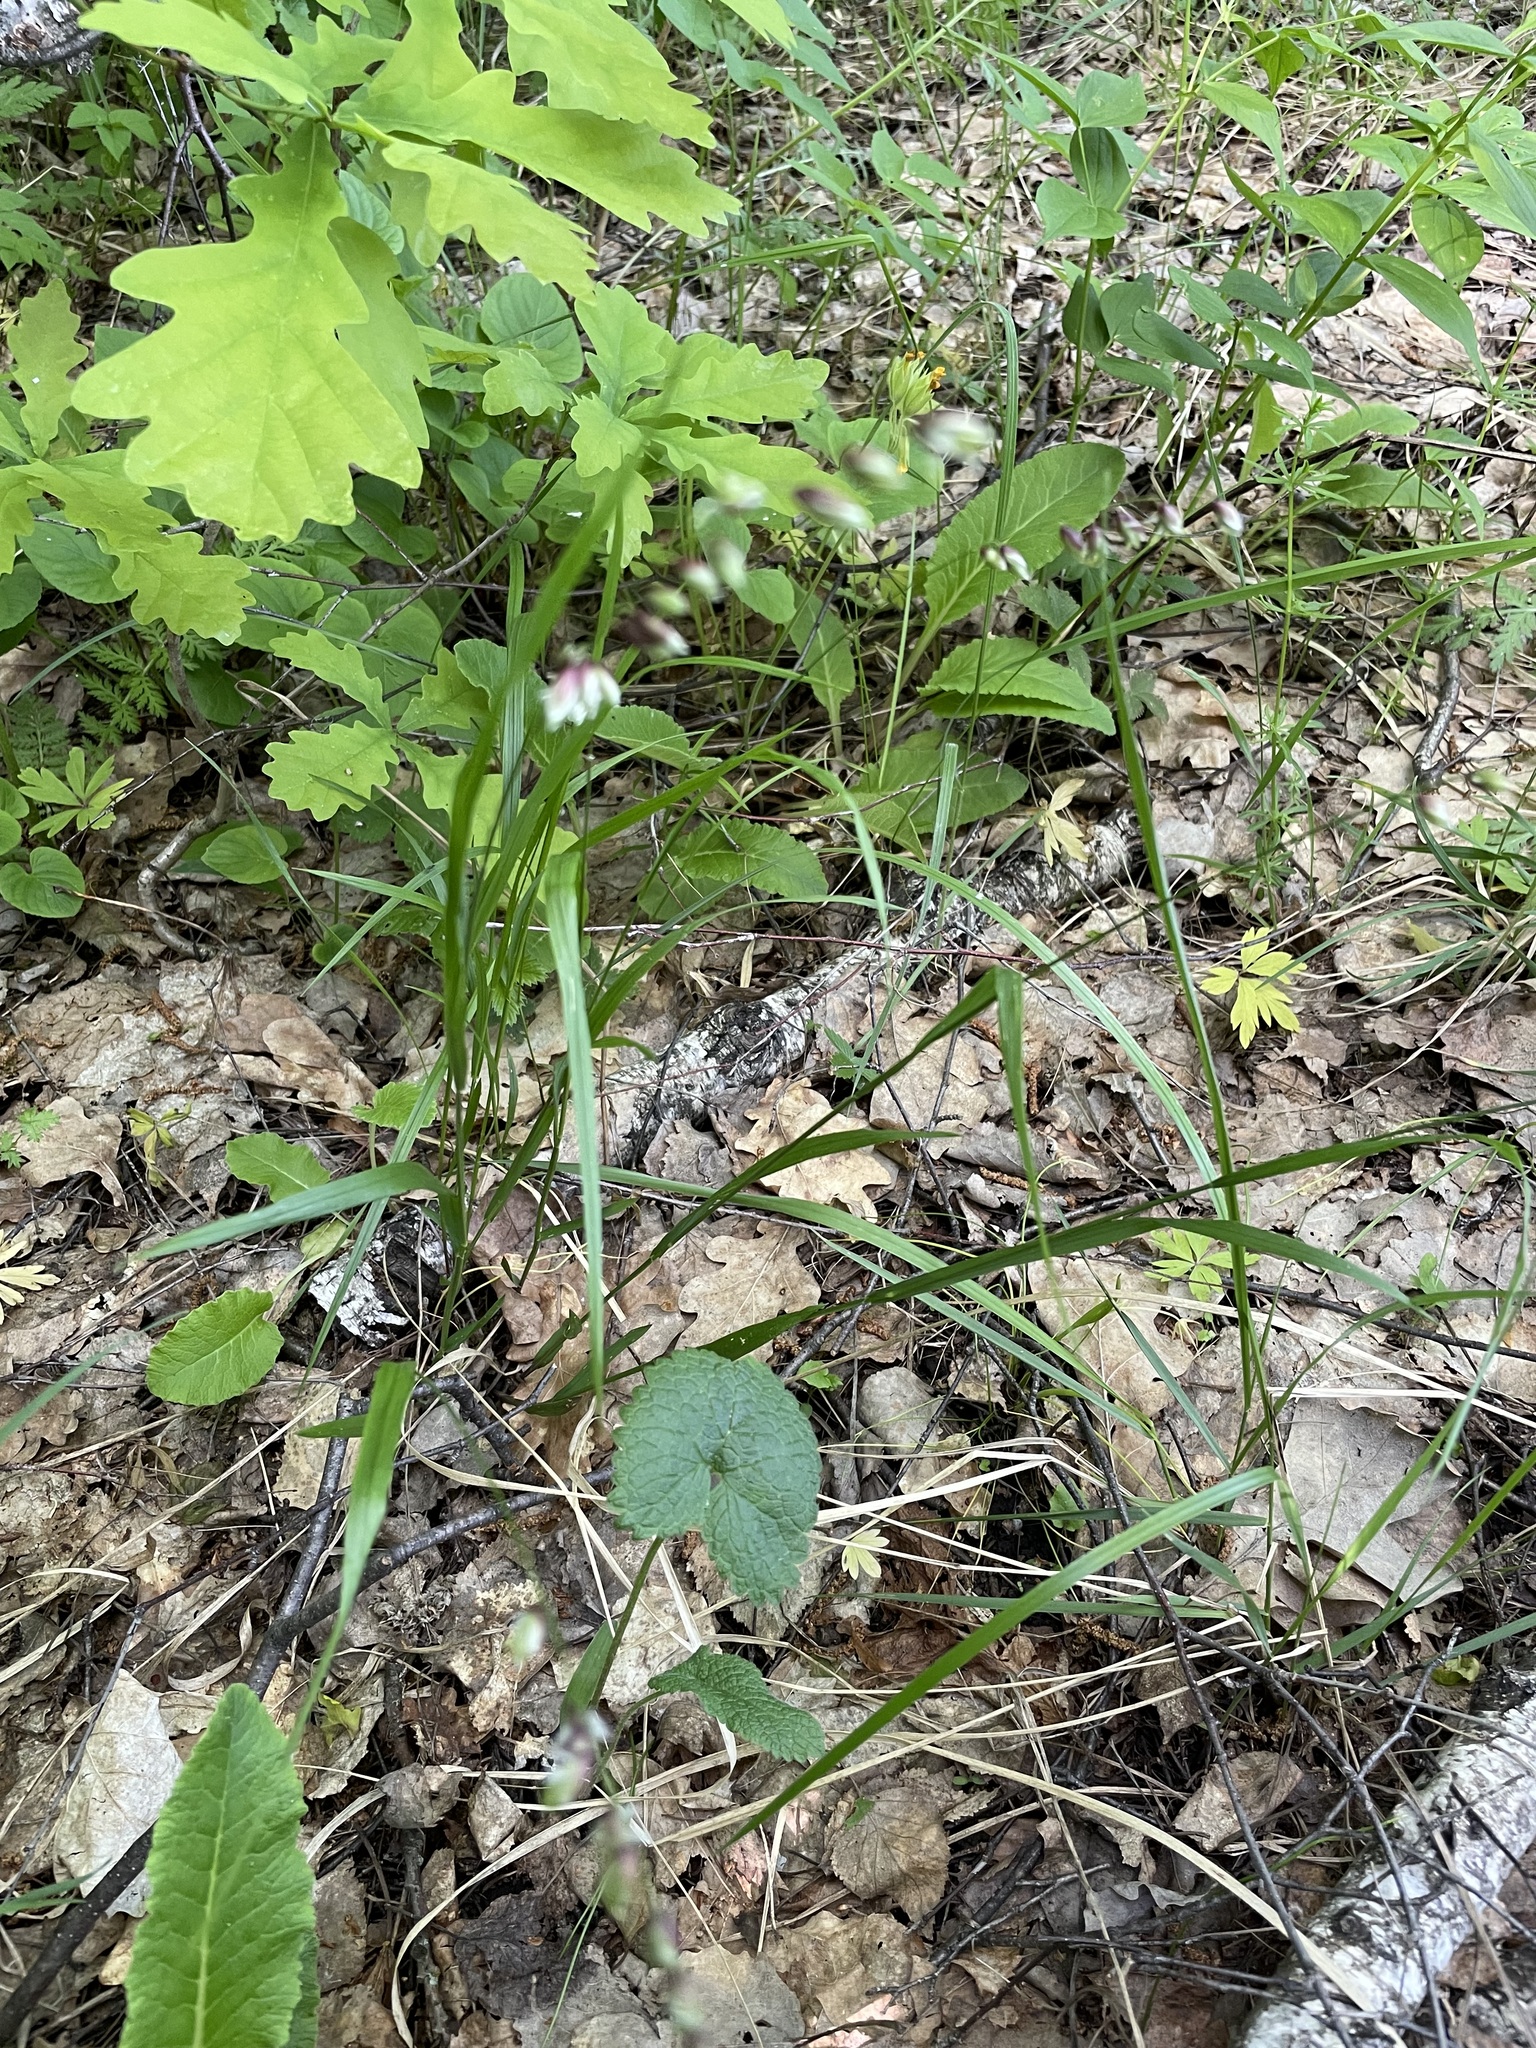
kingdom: Plantae
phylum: Tracheophyta
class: Liliopsida
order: Poales
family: Poaceae
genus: Melica
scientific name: Melica nutans
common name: Mountain melick
